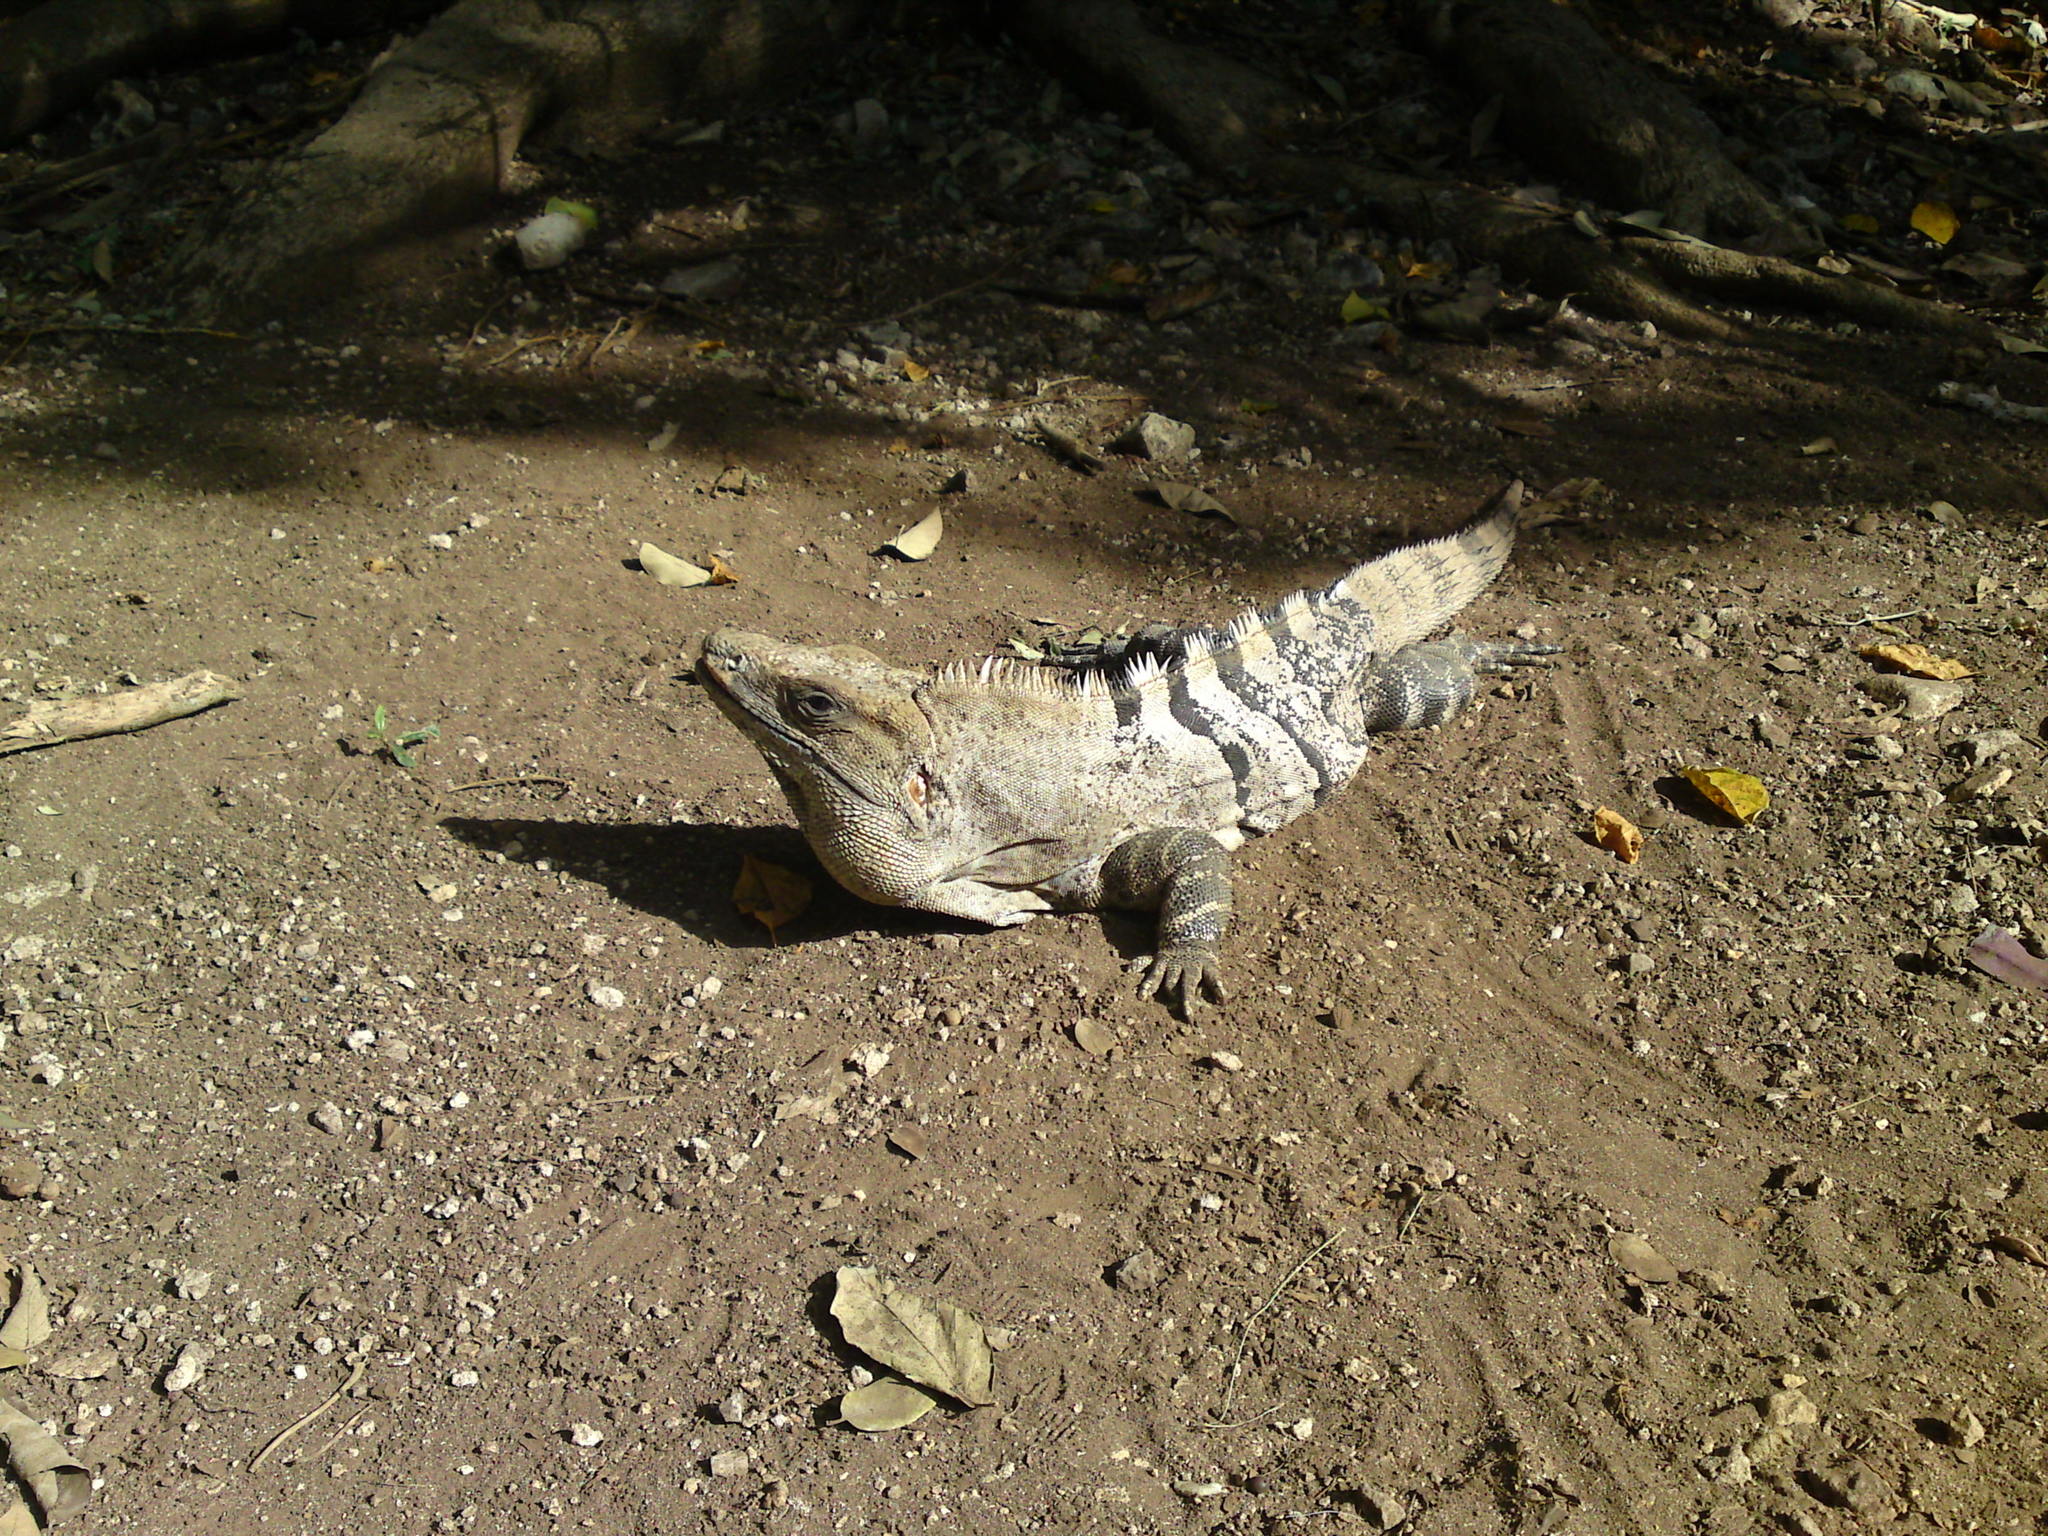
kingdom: Animalia
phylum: Chordata
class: Squamata
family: Iguanidae
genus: Ctenosaura
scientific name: Ctenosaura similis
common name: Black spiny-tailed iguana
